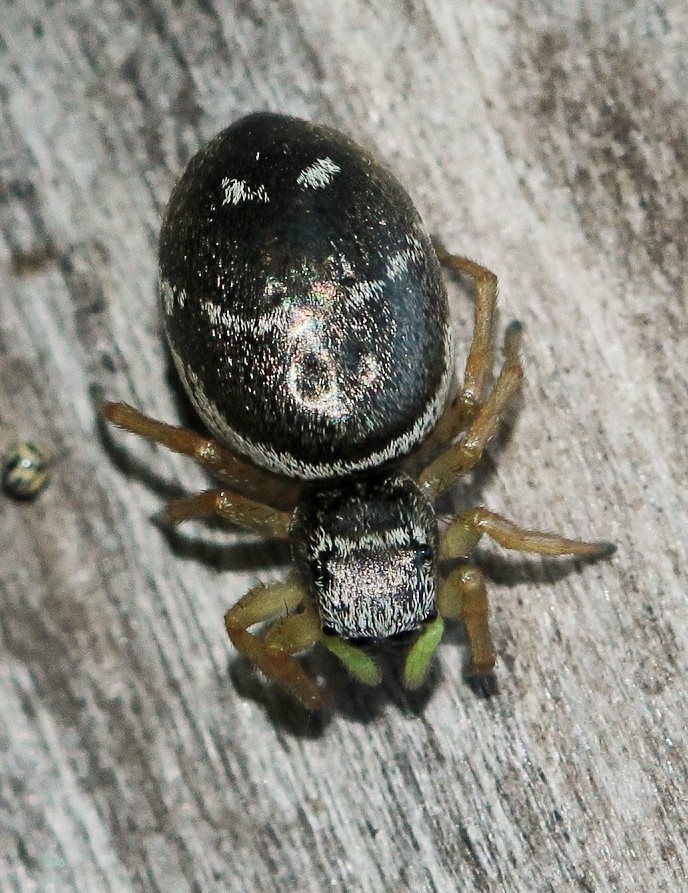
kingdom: Animalia
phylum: Arthropoda
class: Arachnida
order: Araneae
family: Salticidae
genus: Heliophanus
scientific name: Heliophanus cupreus
